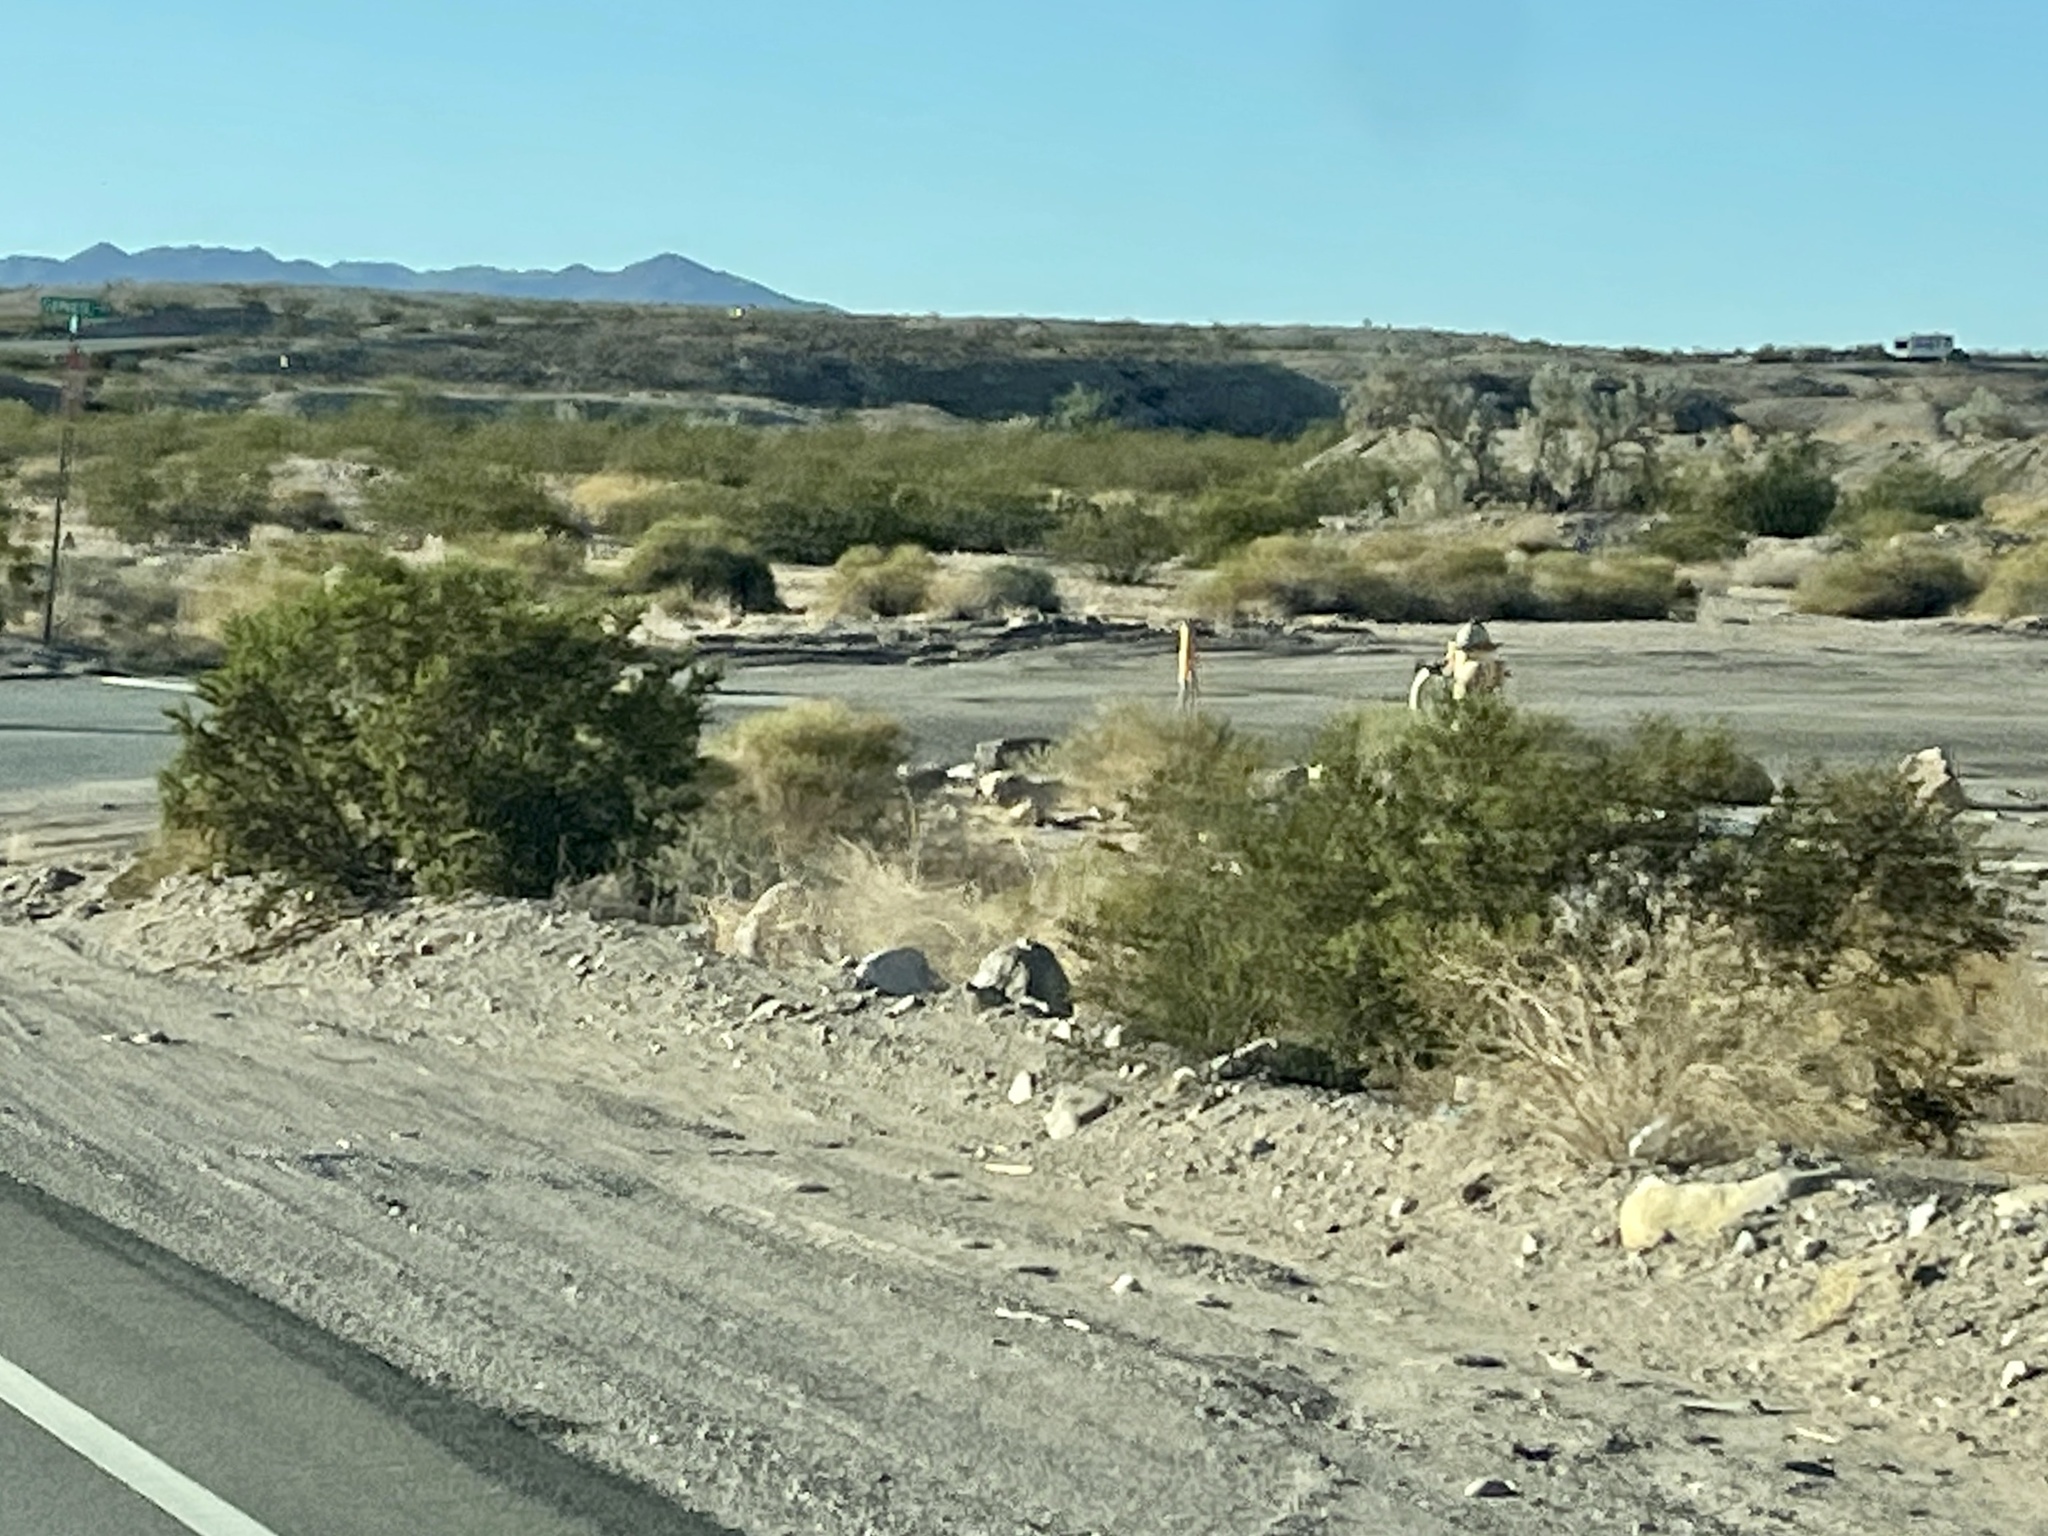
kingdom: Plantae
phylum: Tracheophyta
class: Magnoliopsida
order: Zygophyllales
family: Zygophyllaceae
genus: Larrea
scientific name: Larrea tridentata
